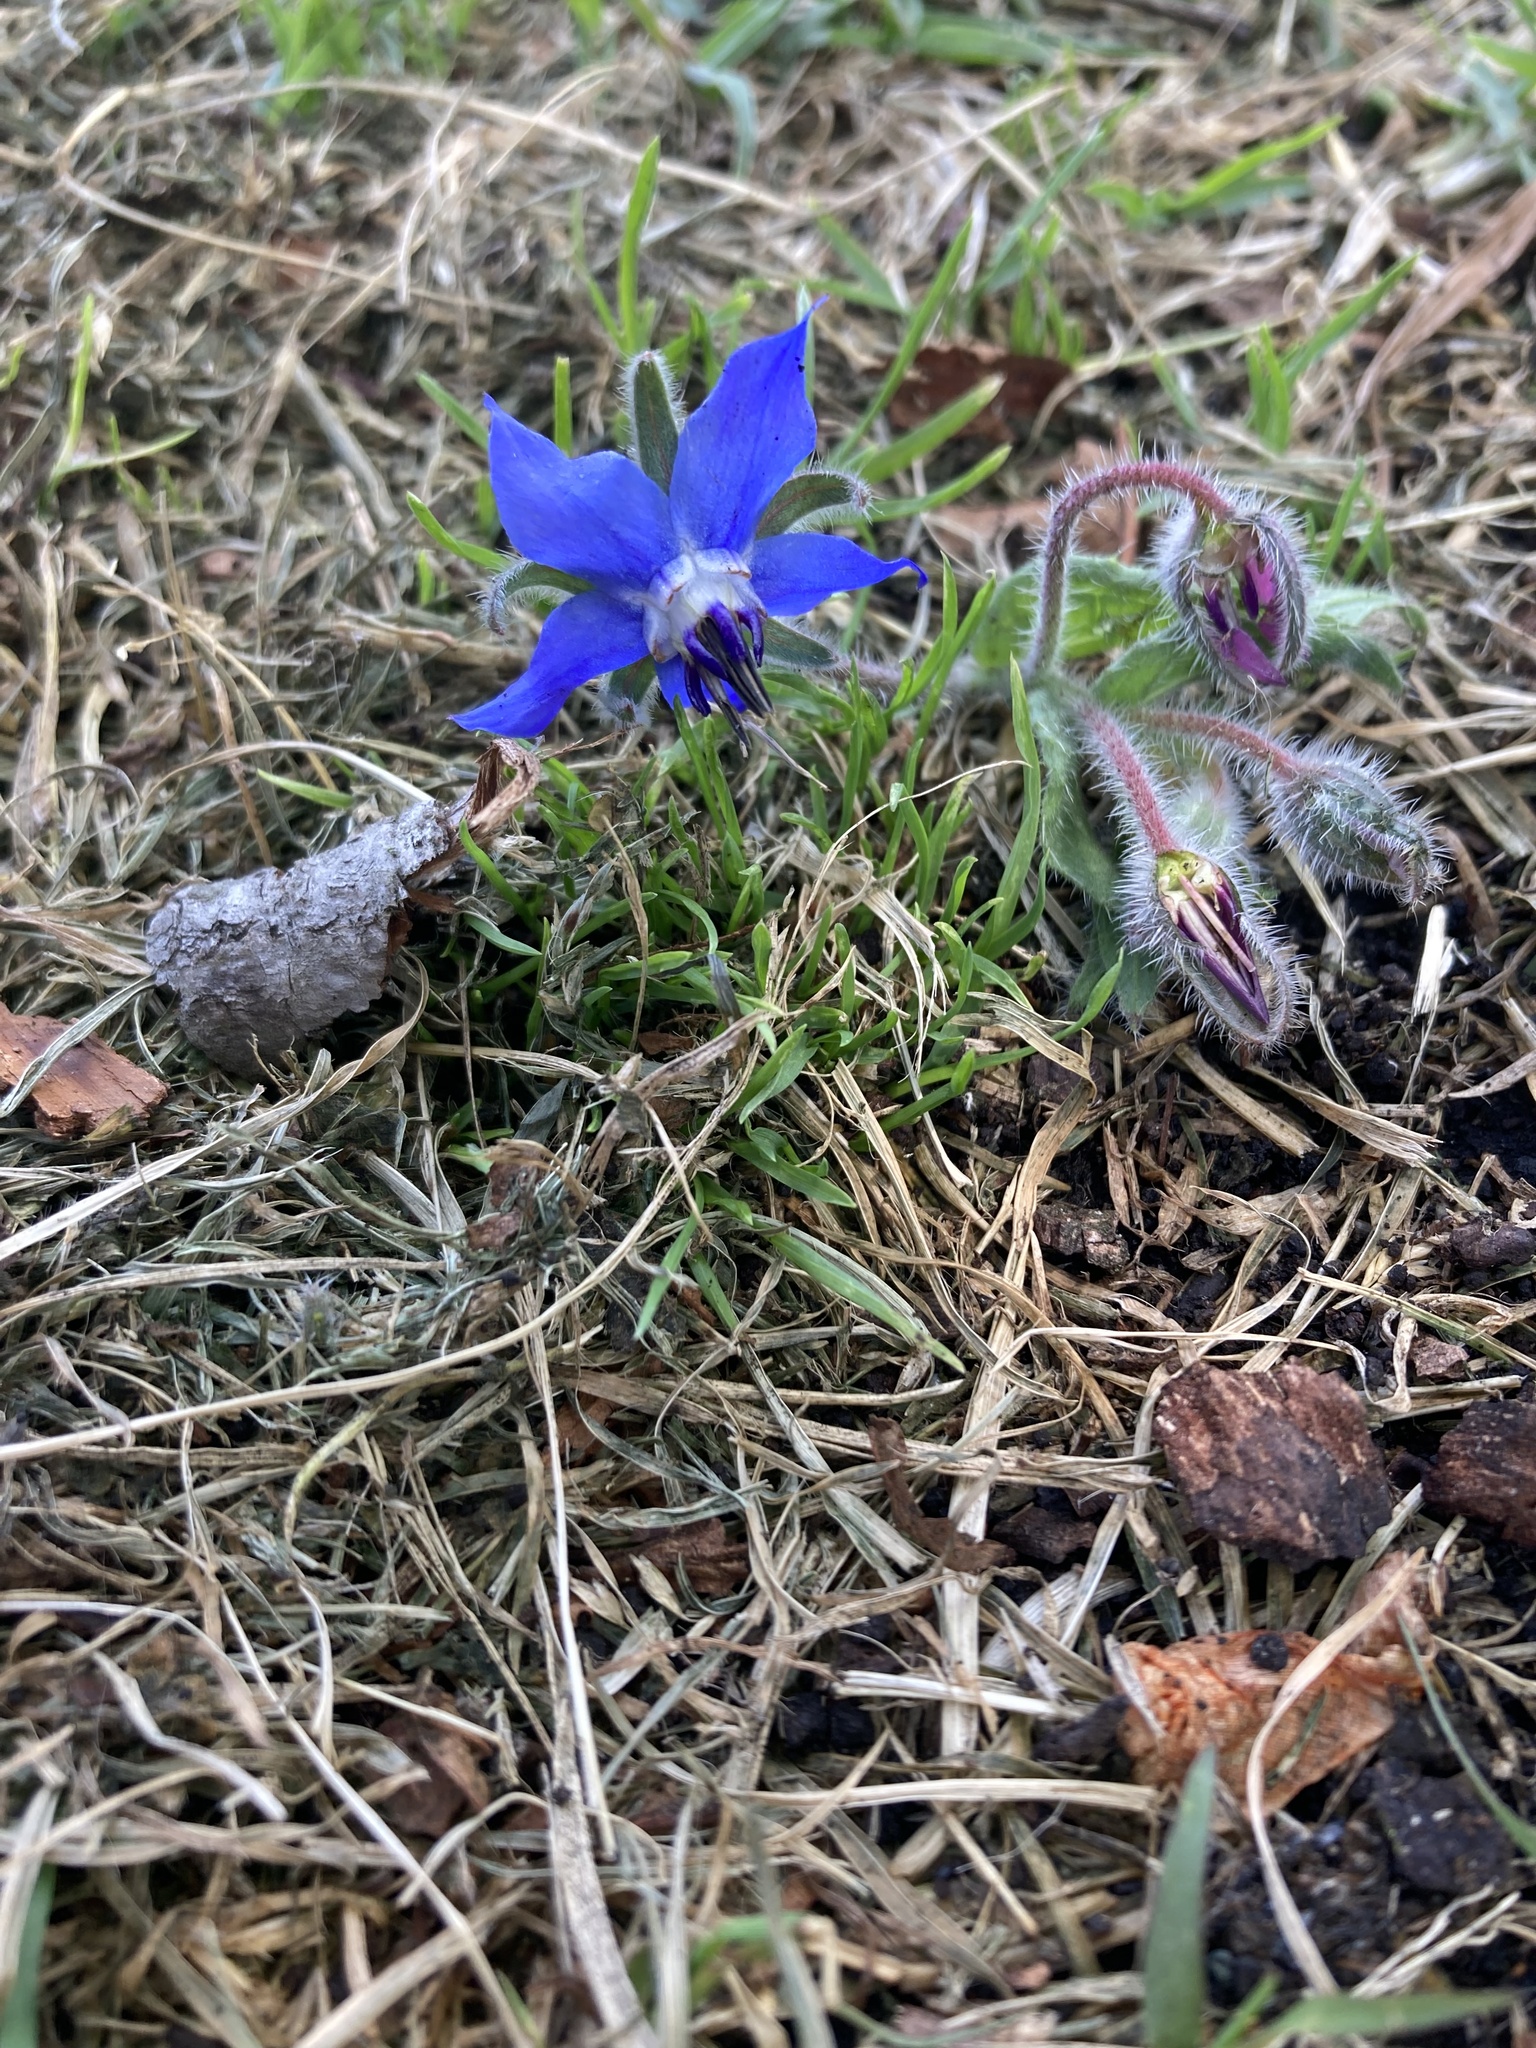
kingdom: Plantae
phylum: Tracheophyta
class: Magnoliopsida
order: Boraginales
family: Boraginaceae
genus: Borago
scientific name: Borago officinalis
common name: Borage
